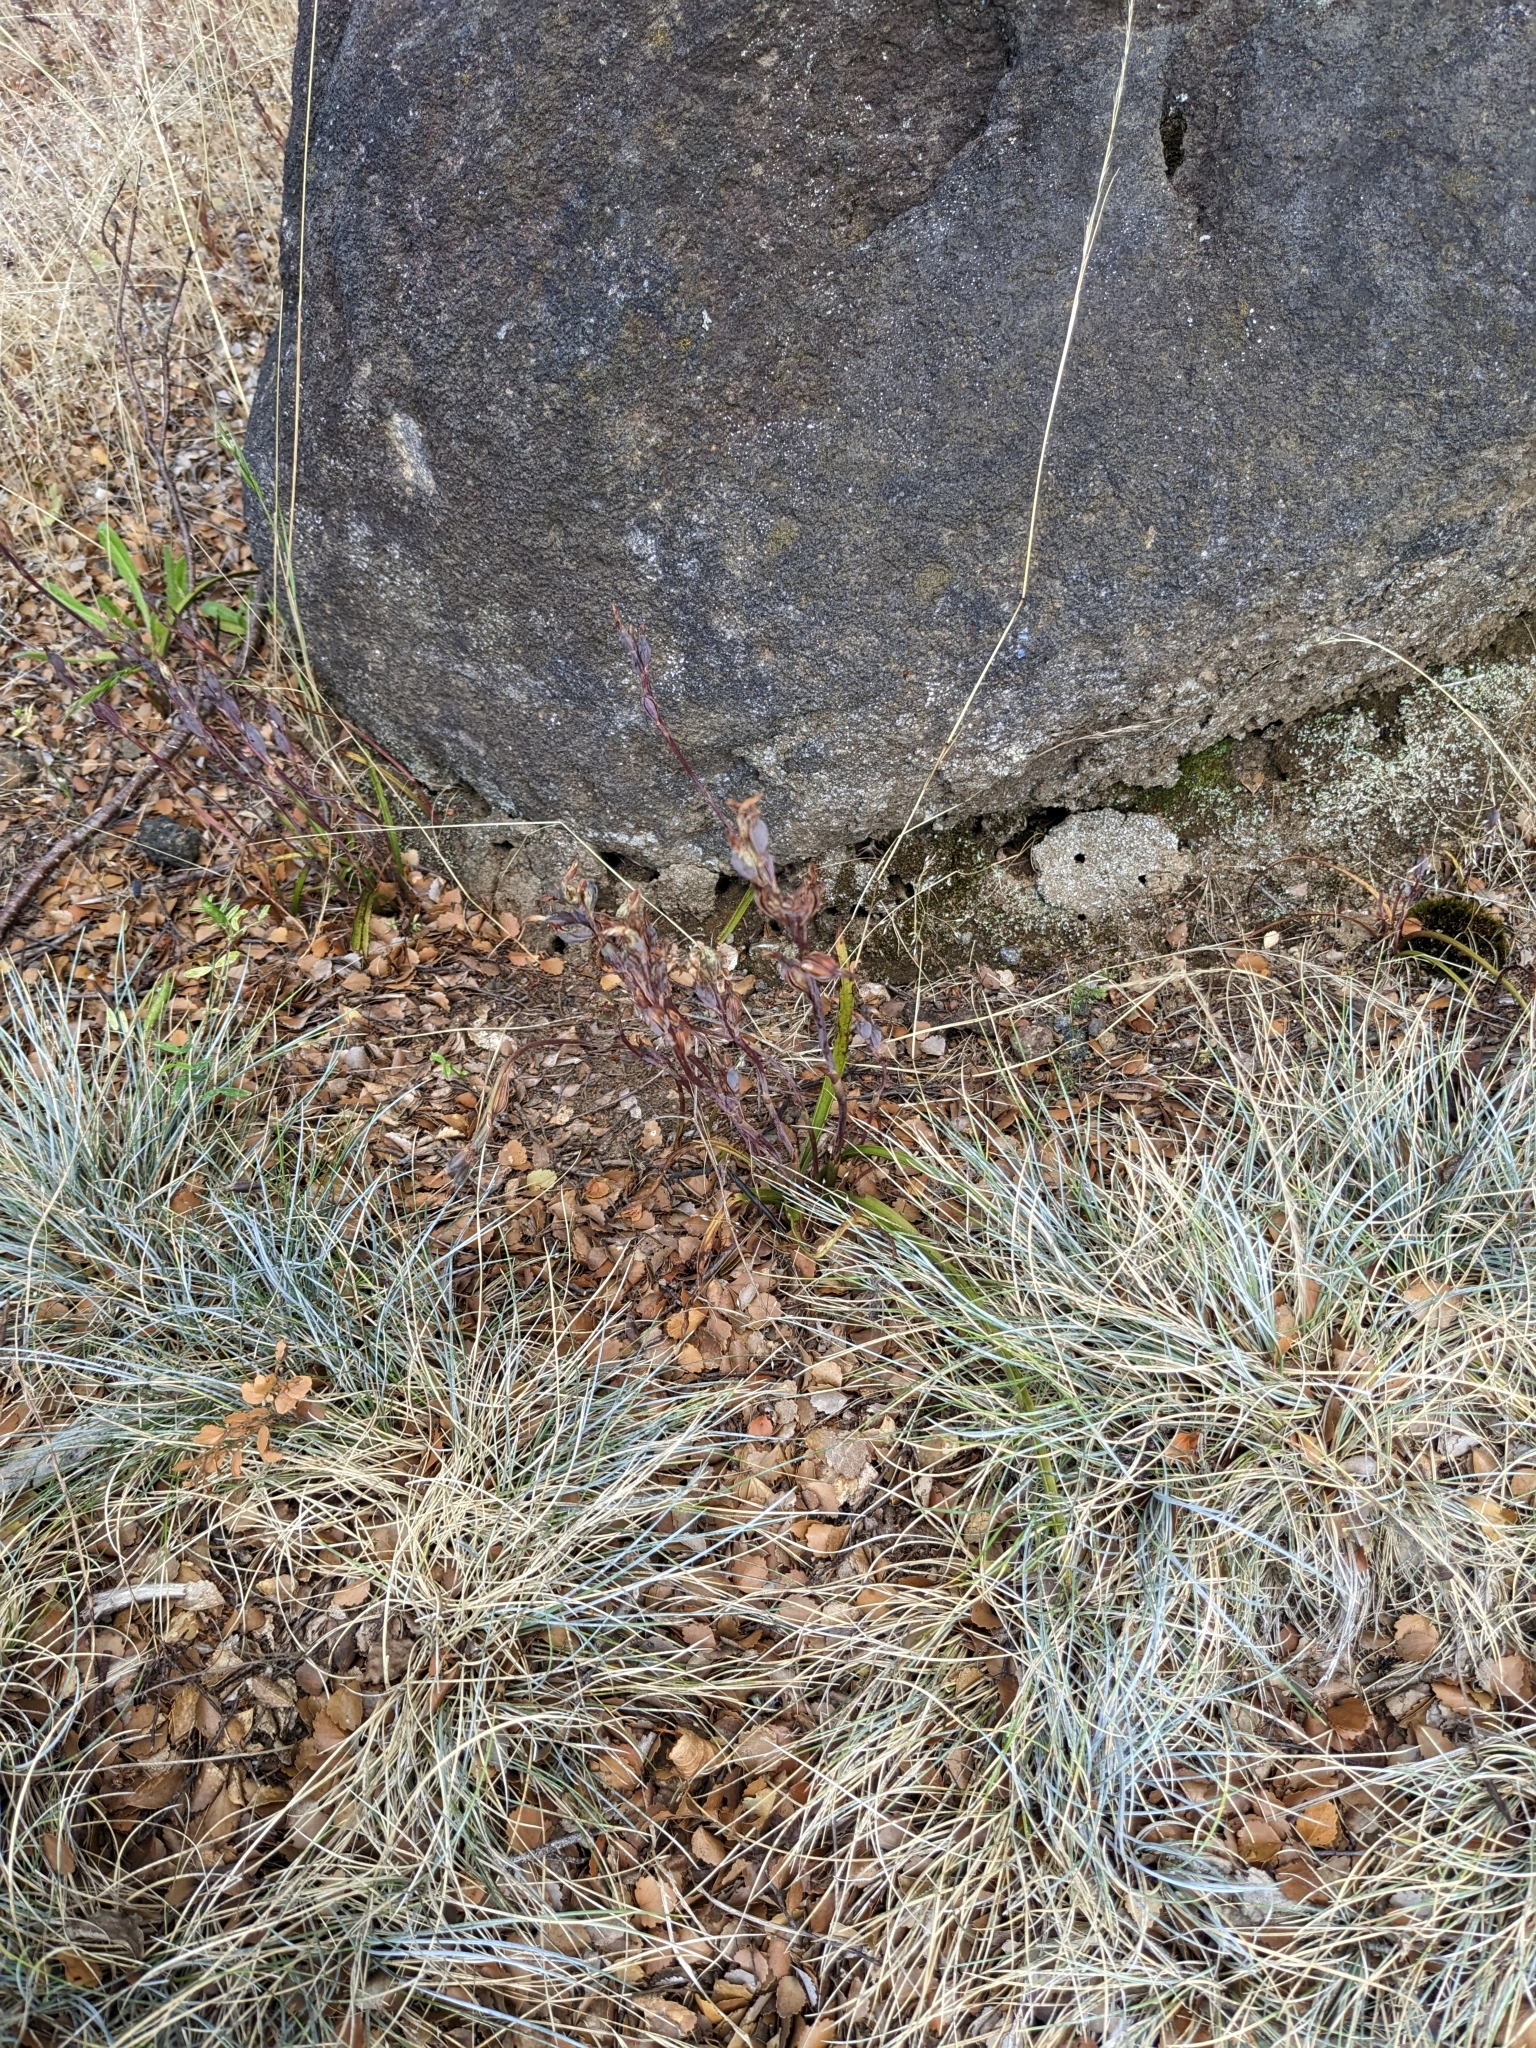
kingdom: Plantae
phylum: Tracheophyta
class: Liliopsida
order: Asparagales
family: Orchidaceae
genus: Thelymitra
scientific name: Thelymitra longifolia
